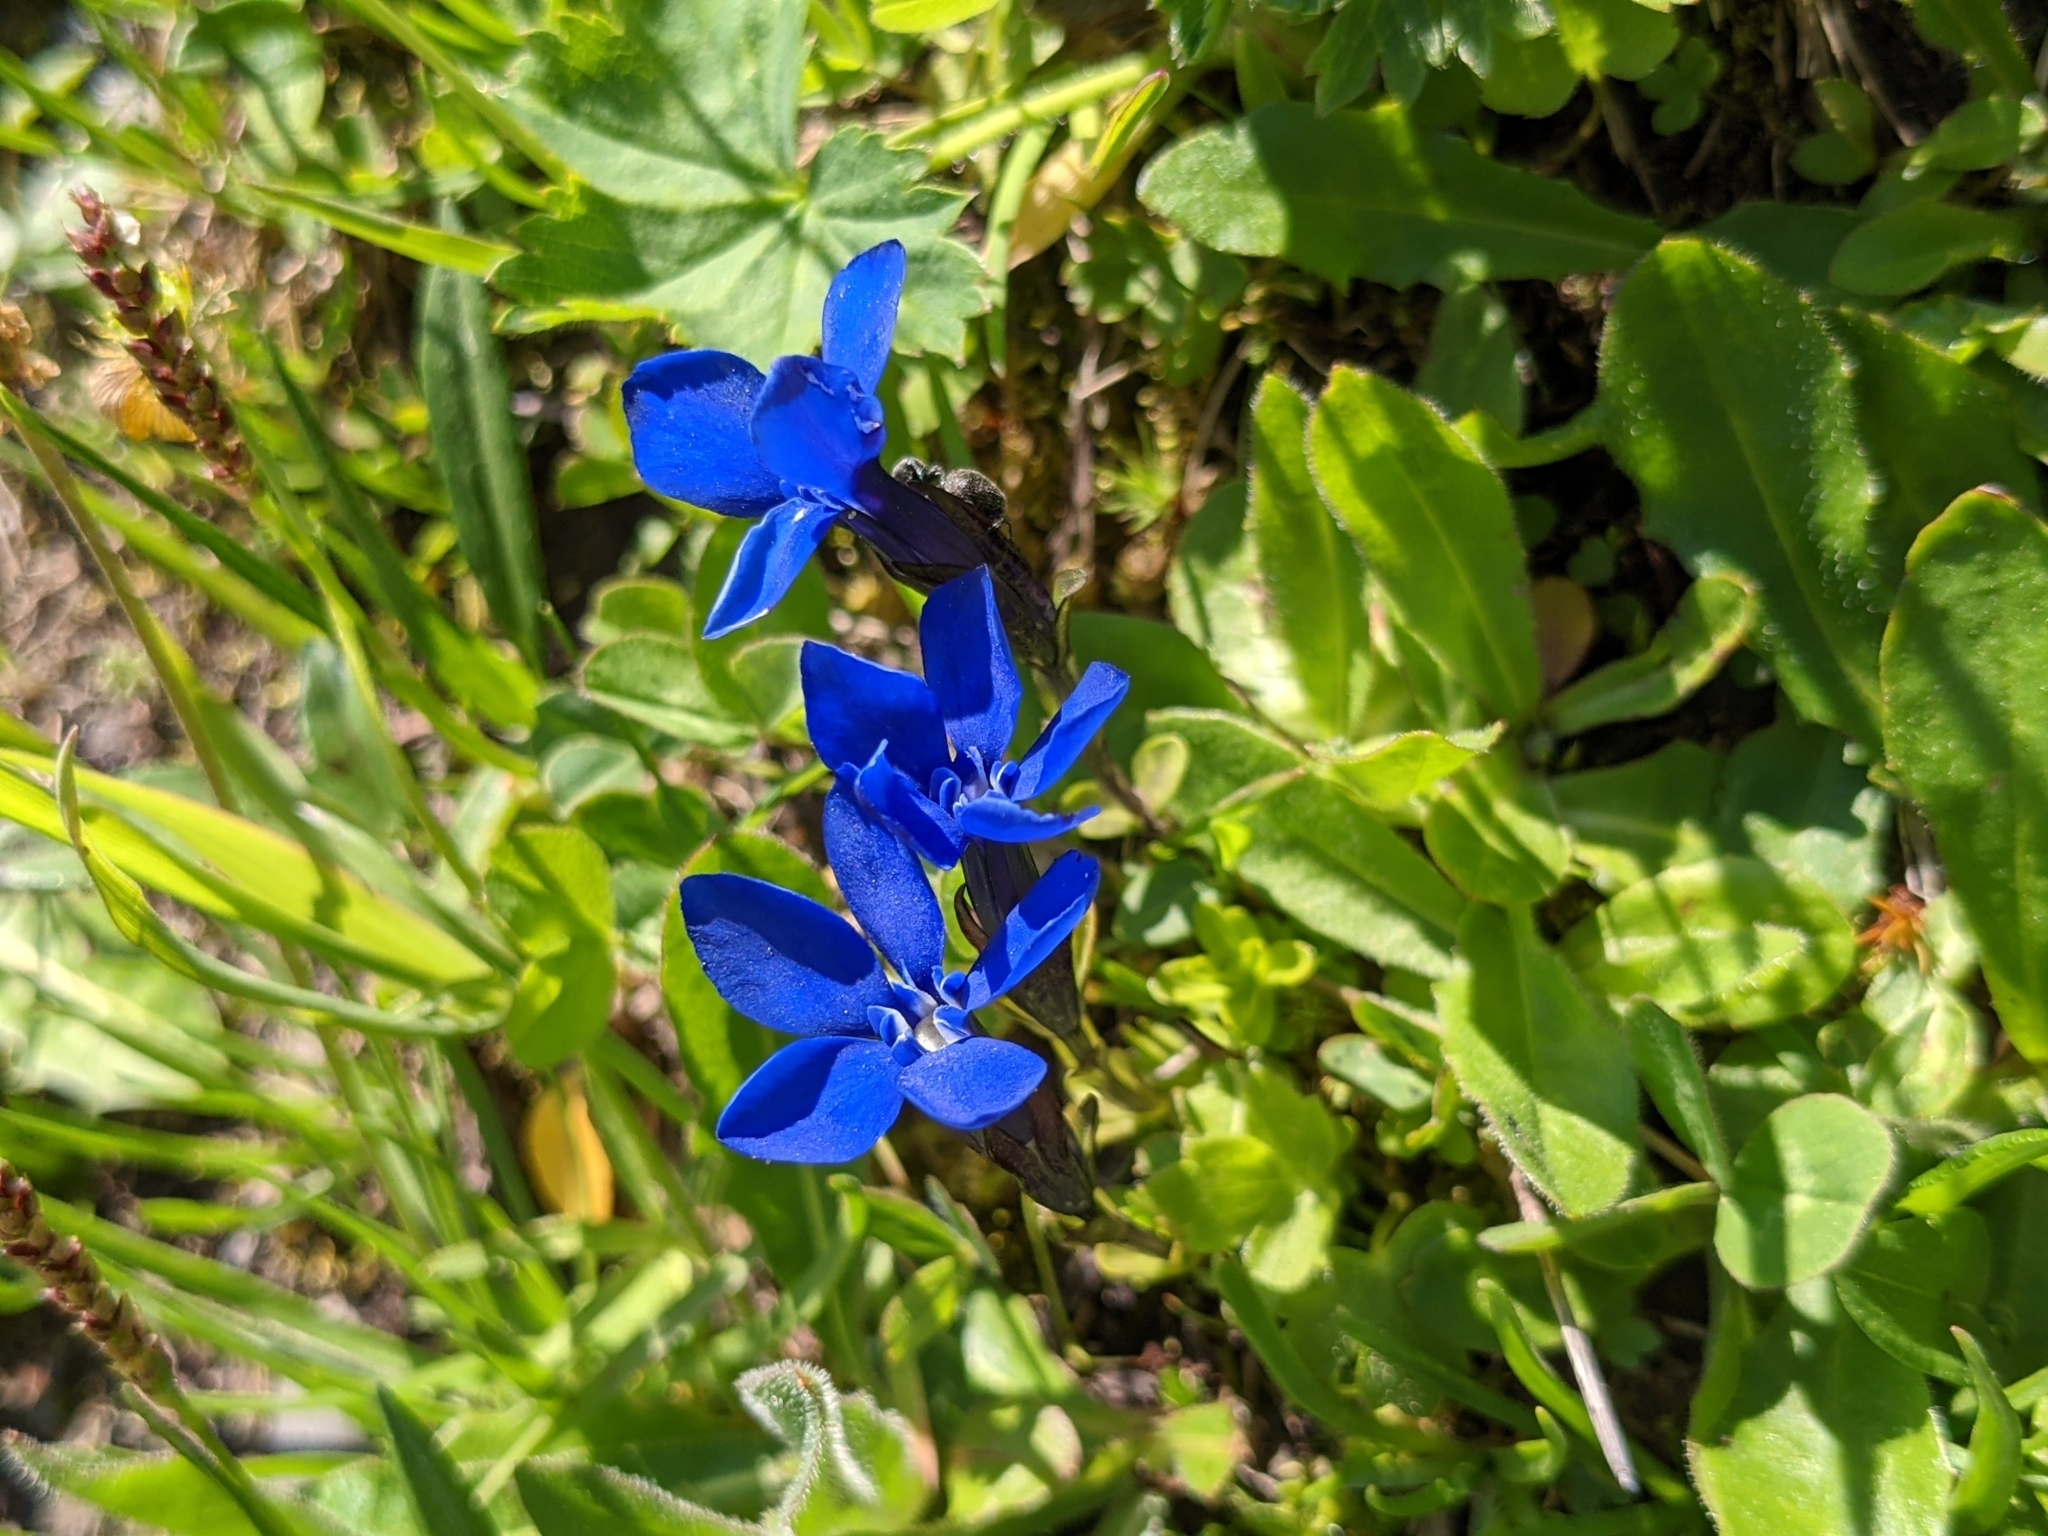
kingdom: Plantae
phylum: Tracheophyta
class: Magnoliopsida
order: Gentianales
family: Gentianaceae
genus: Gentiana
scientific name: Gentiana bavarica
